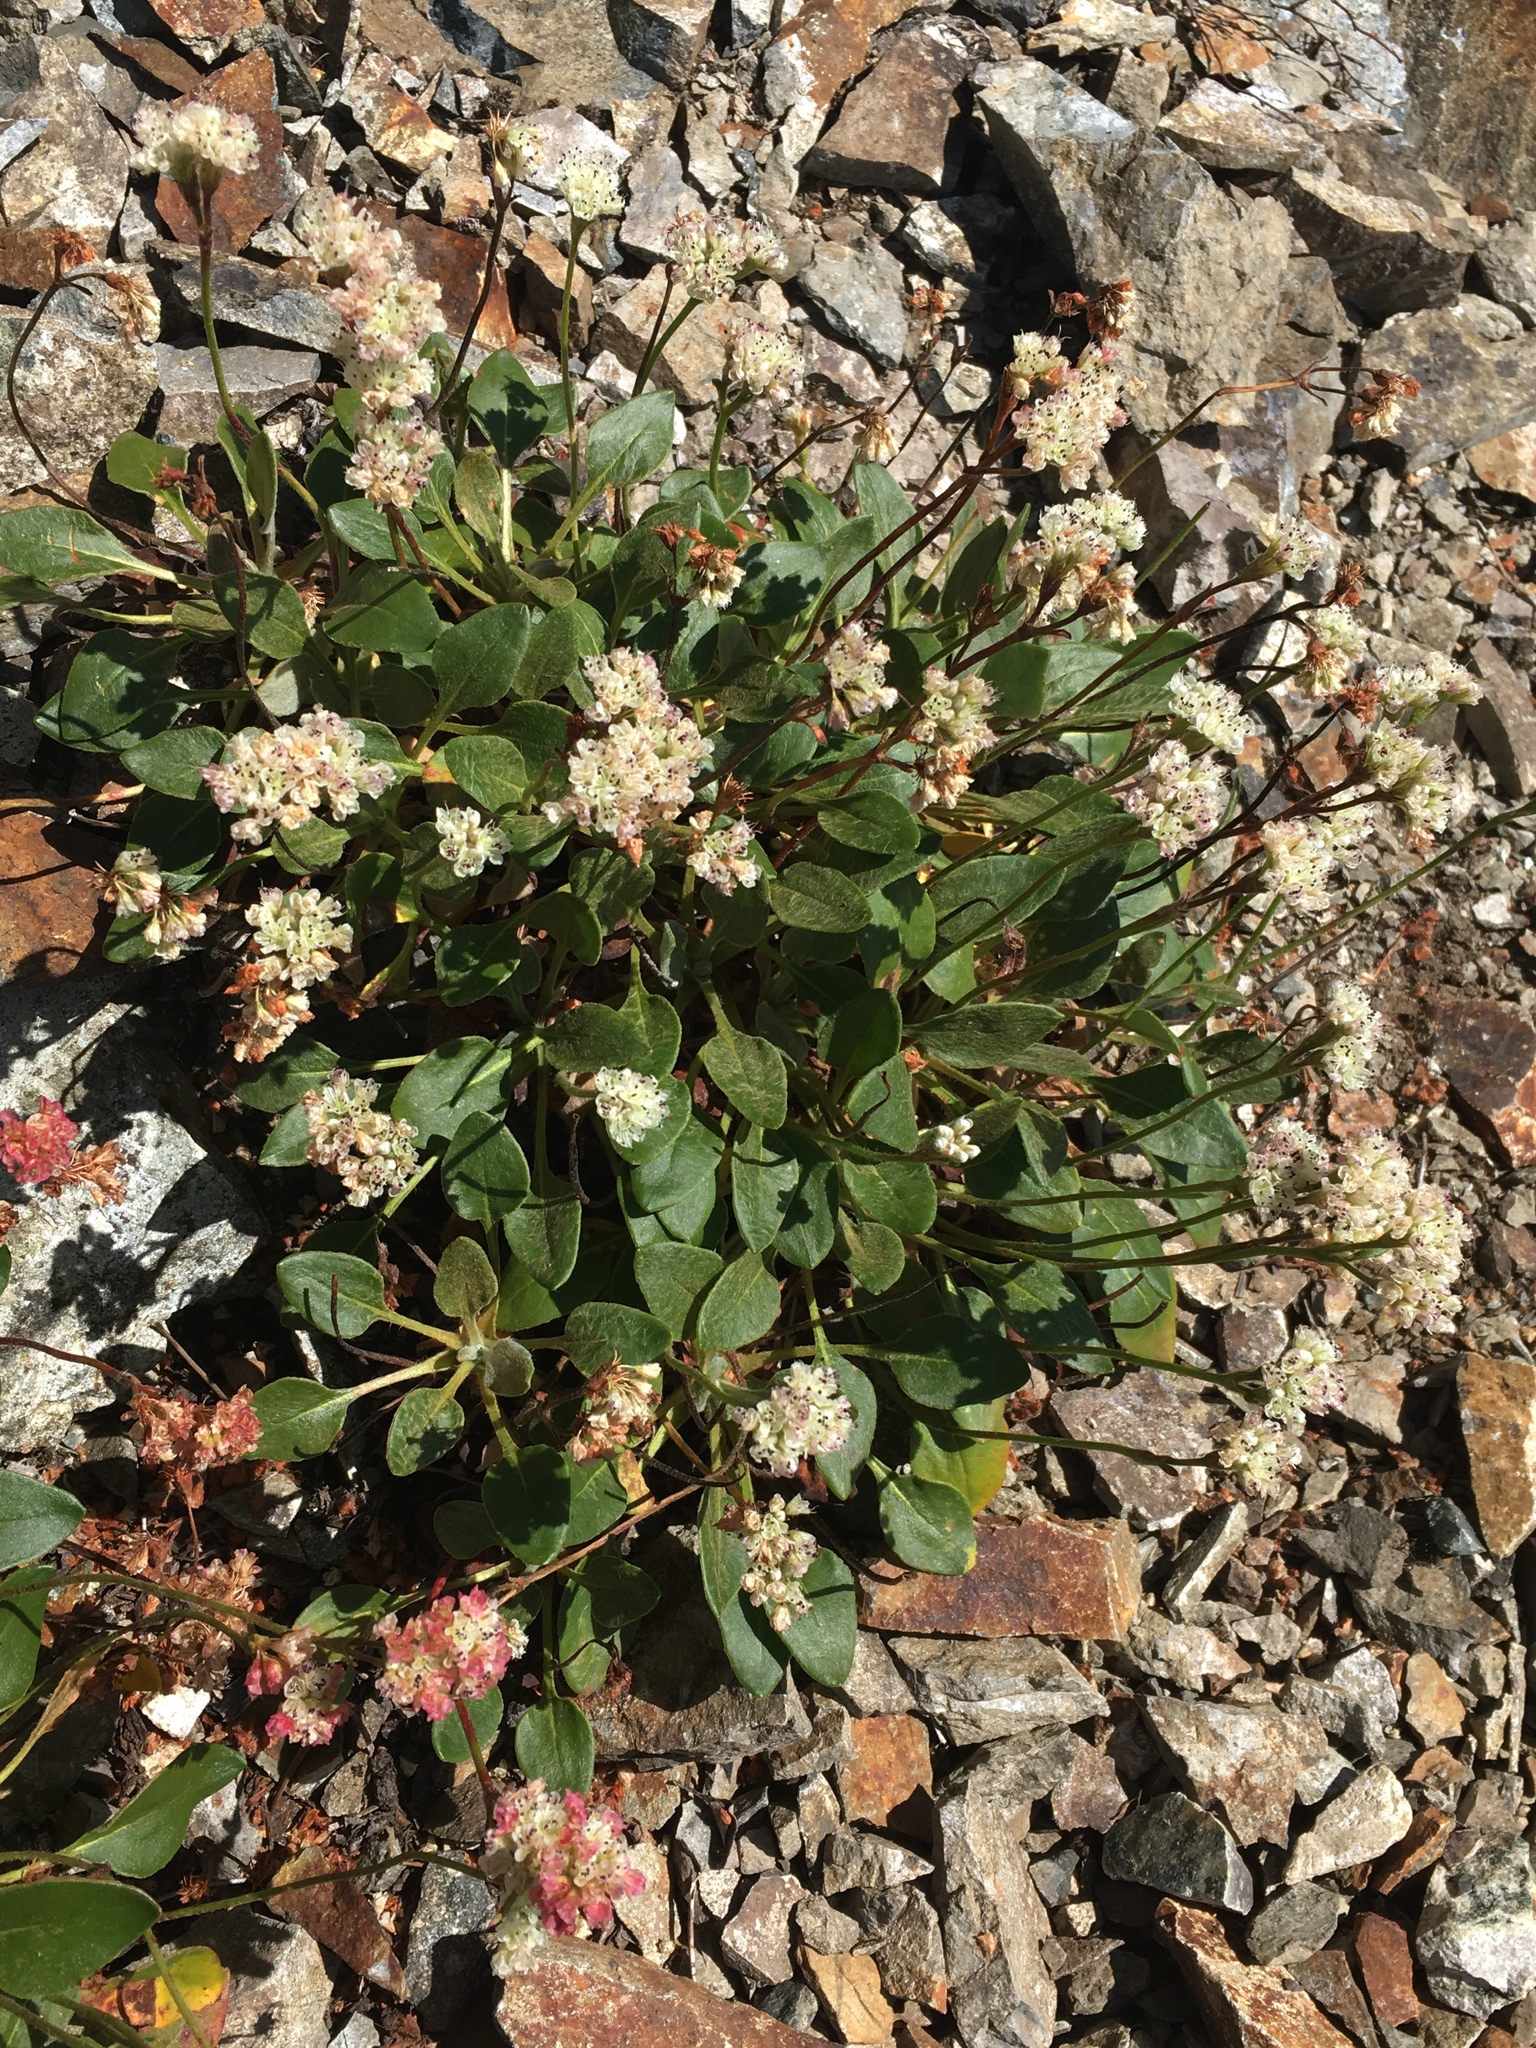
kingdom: Plantae
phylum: Tracheophyta
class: Magnoliopsida
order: Caryophyllales
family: Polygonaceae
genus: Eriogonum
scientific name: Eriogonum pyrolifolium
